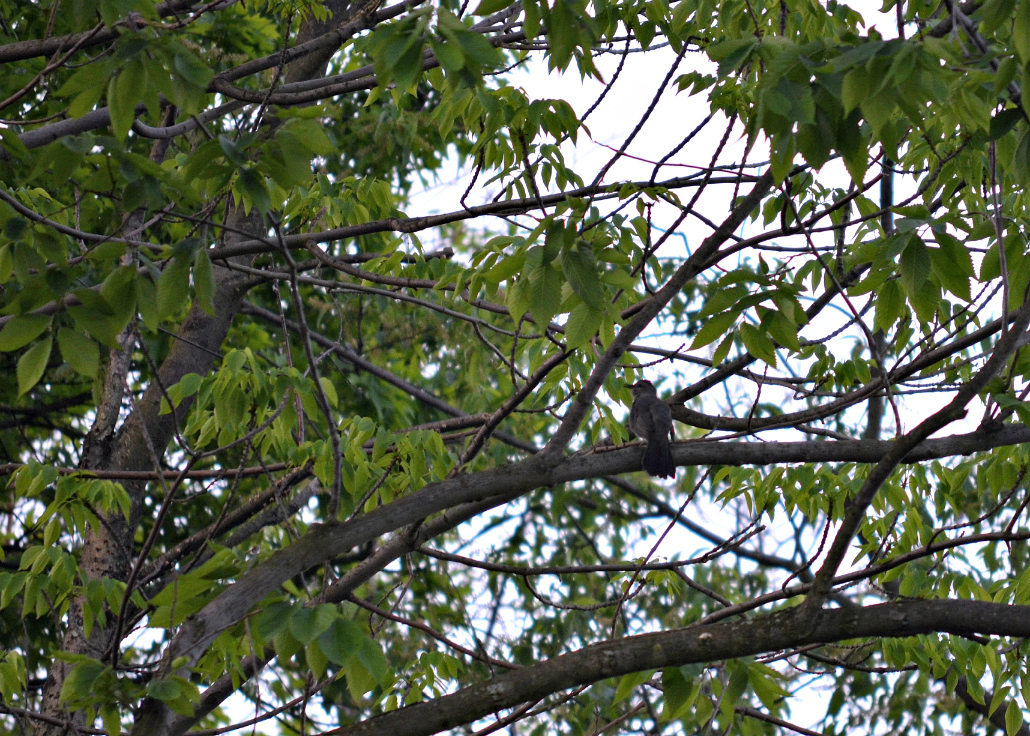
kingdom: Animalia
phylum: Chordata
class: Aves
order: Passeriformes
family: Mimidae
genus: Dumetella
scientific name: Dumetella carolinensis
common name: Gray catbird
